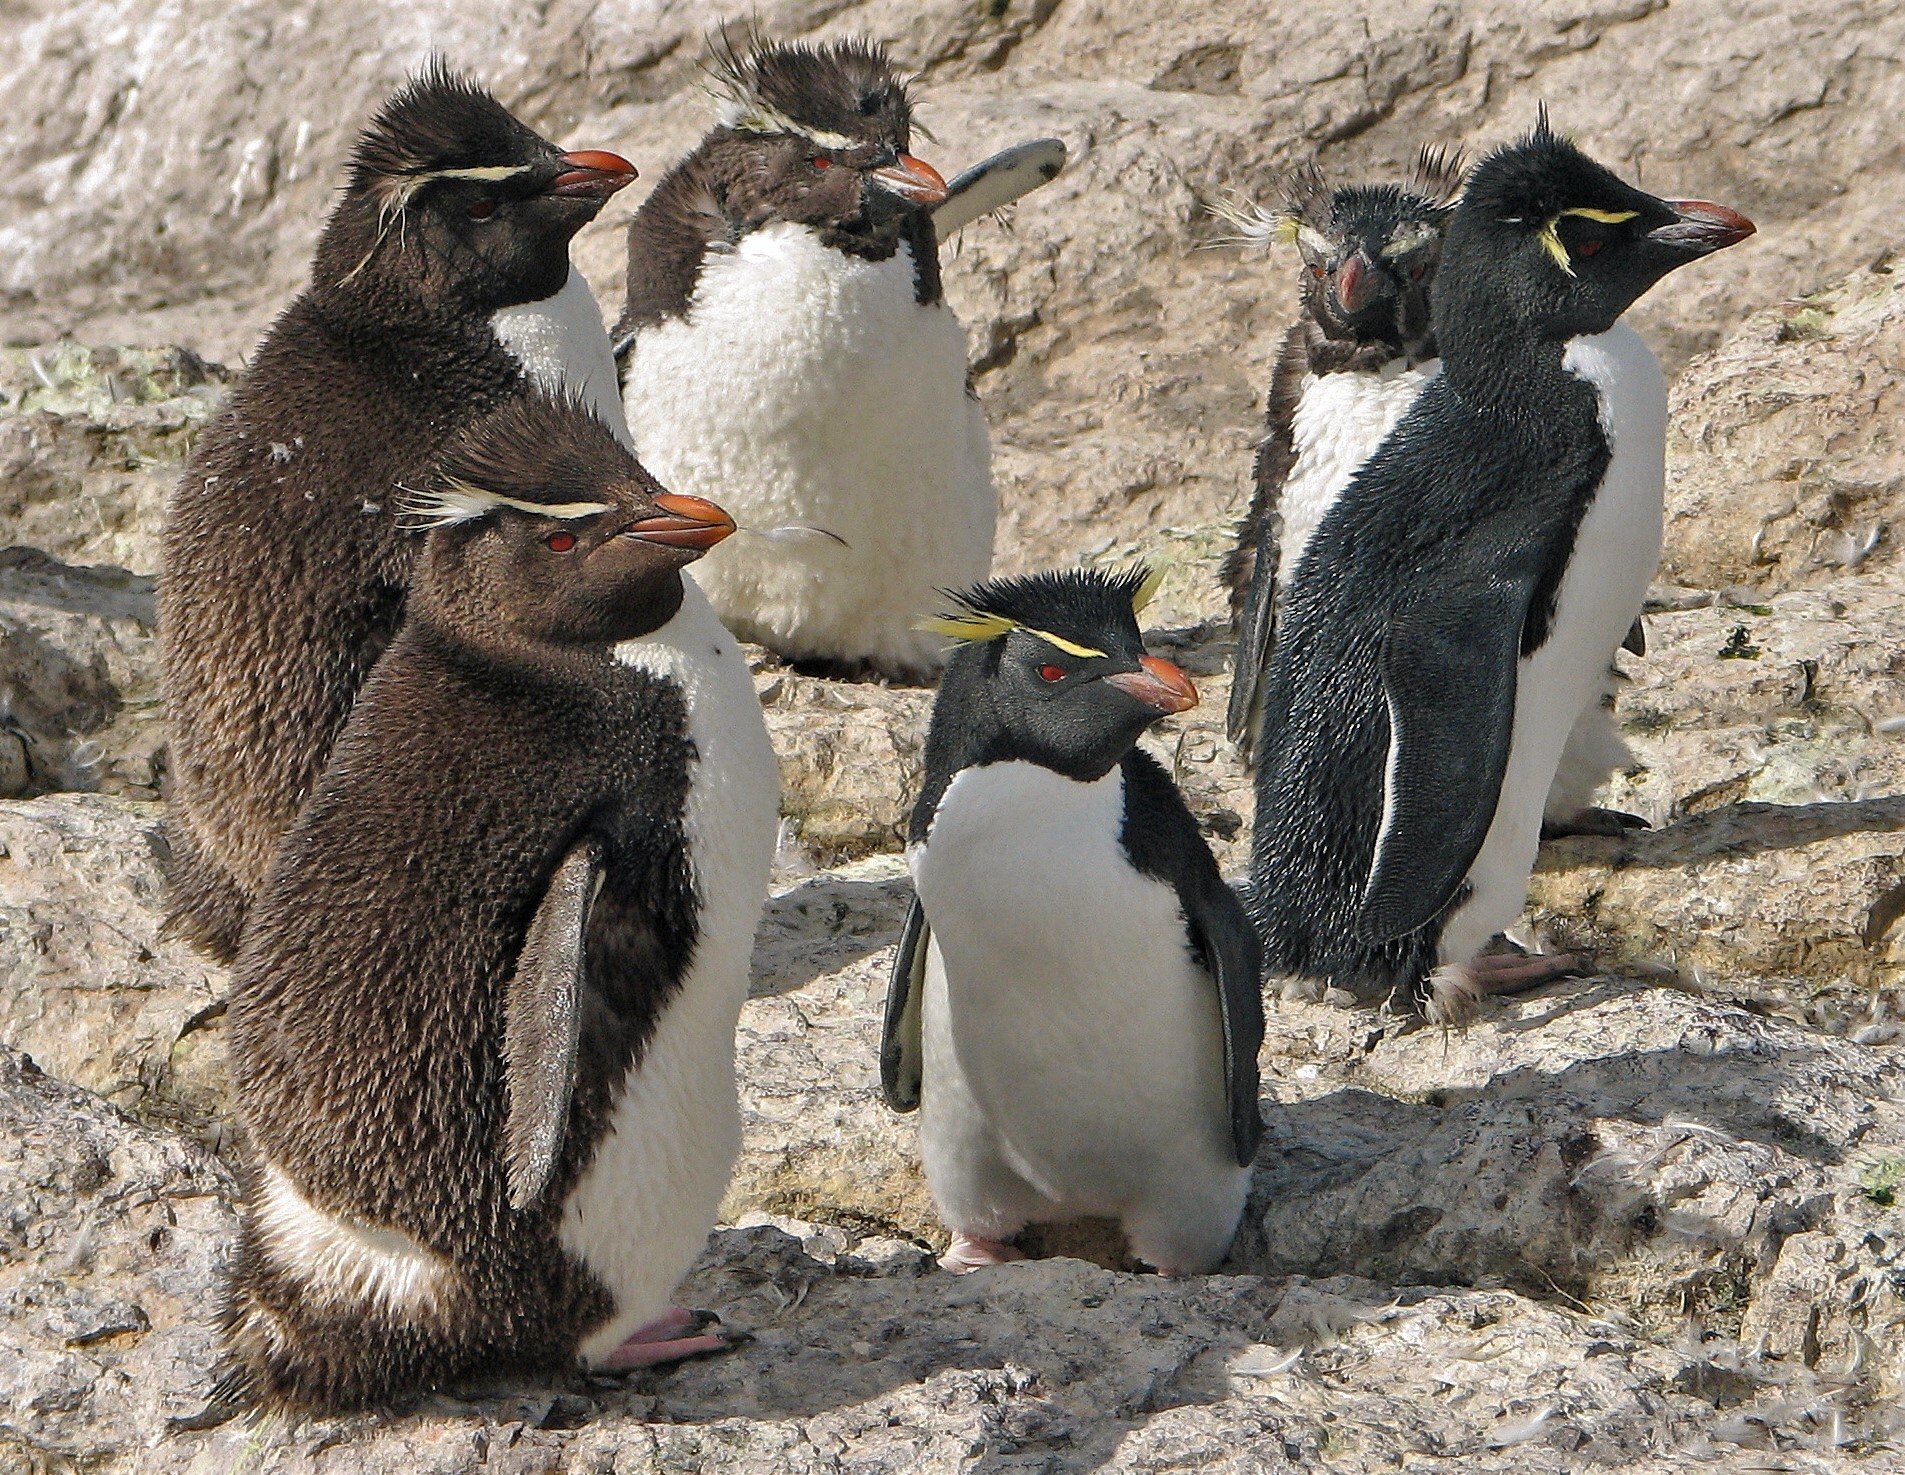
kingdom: Animalia
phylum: Chordata
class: Aves
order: Sphenisciformes
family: Spheniscidae
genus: Eudyptes
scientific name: Eudyptes chrysocome
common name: Southern rockhopper penguin
